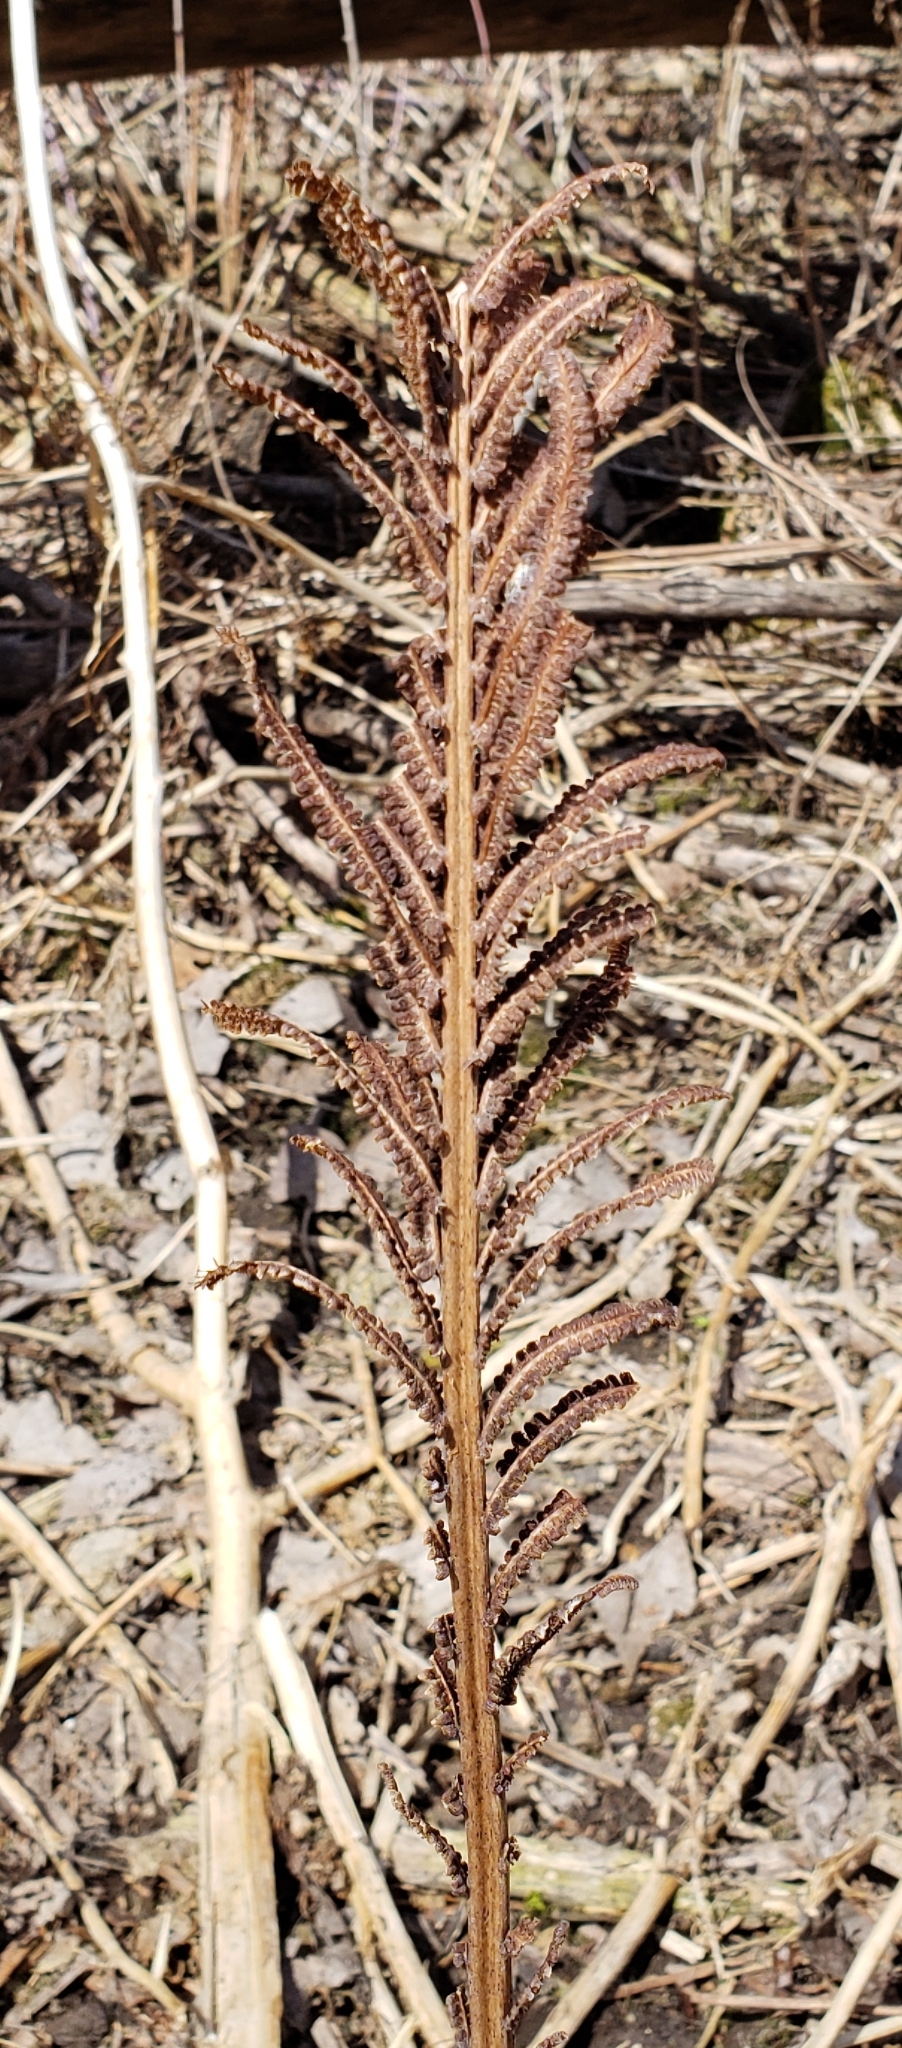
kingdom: Plantae
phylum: Tracheophyta
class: Polypodiopsida
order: Polypodiales
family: Onocleaceae
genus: Matteuccia
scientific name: Matteuccia struthiopteris
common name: Ostrich fern
